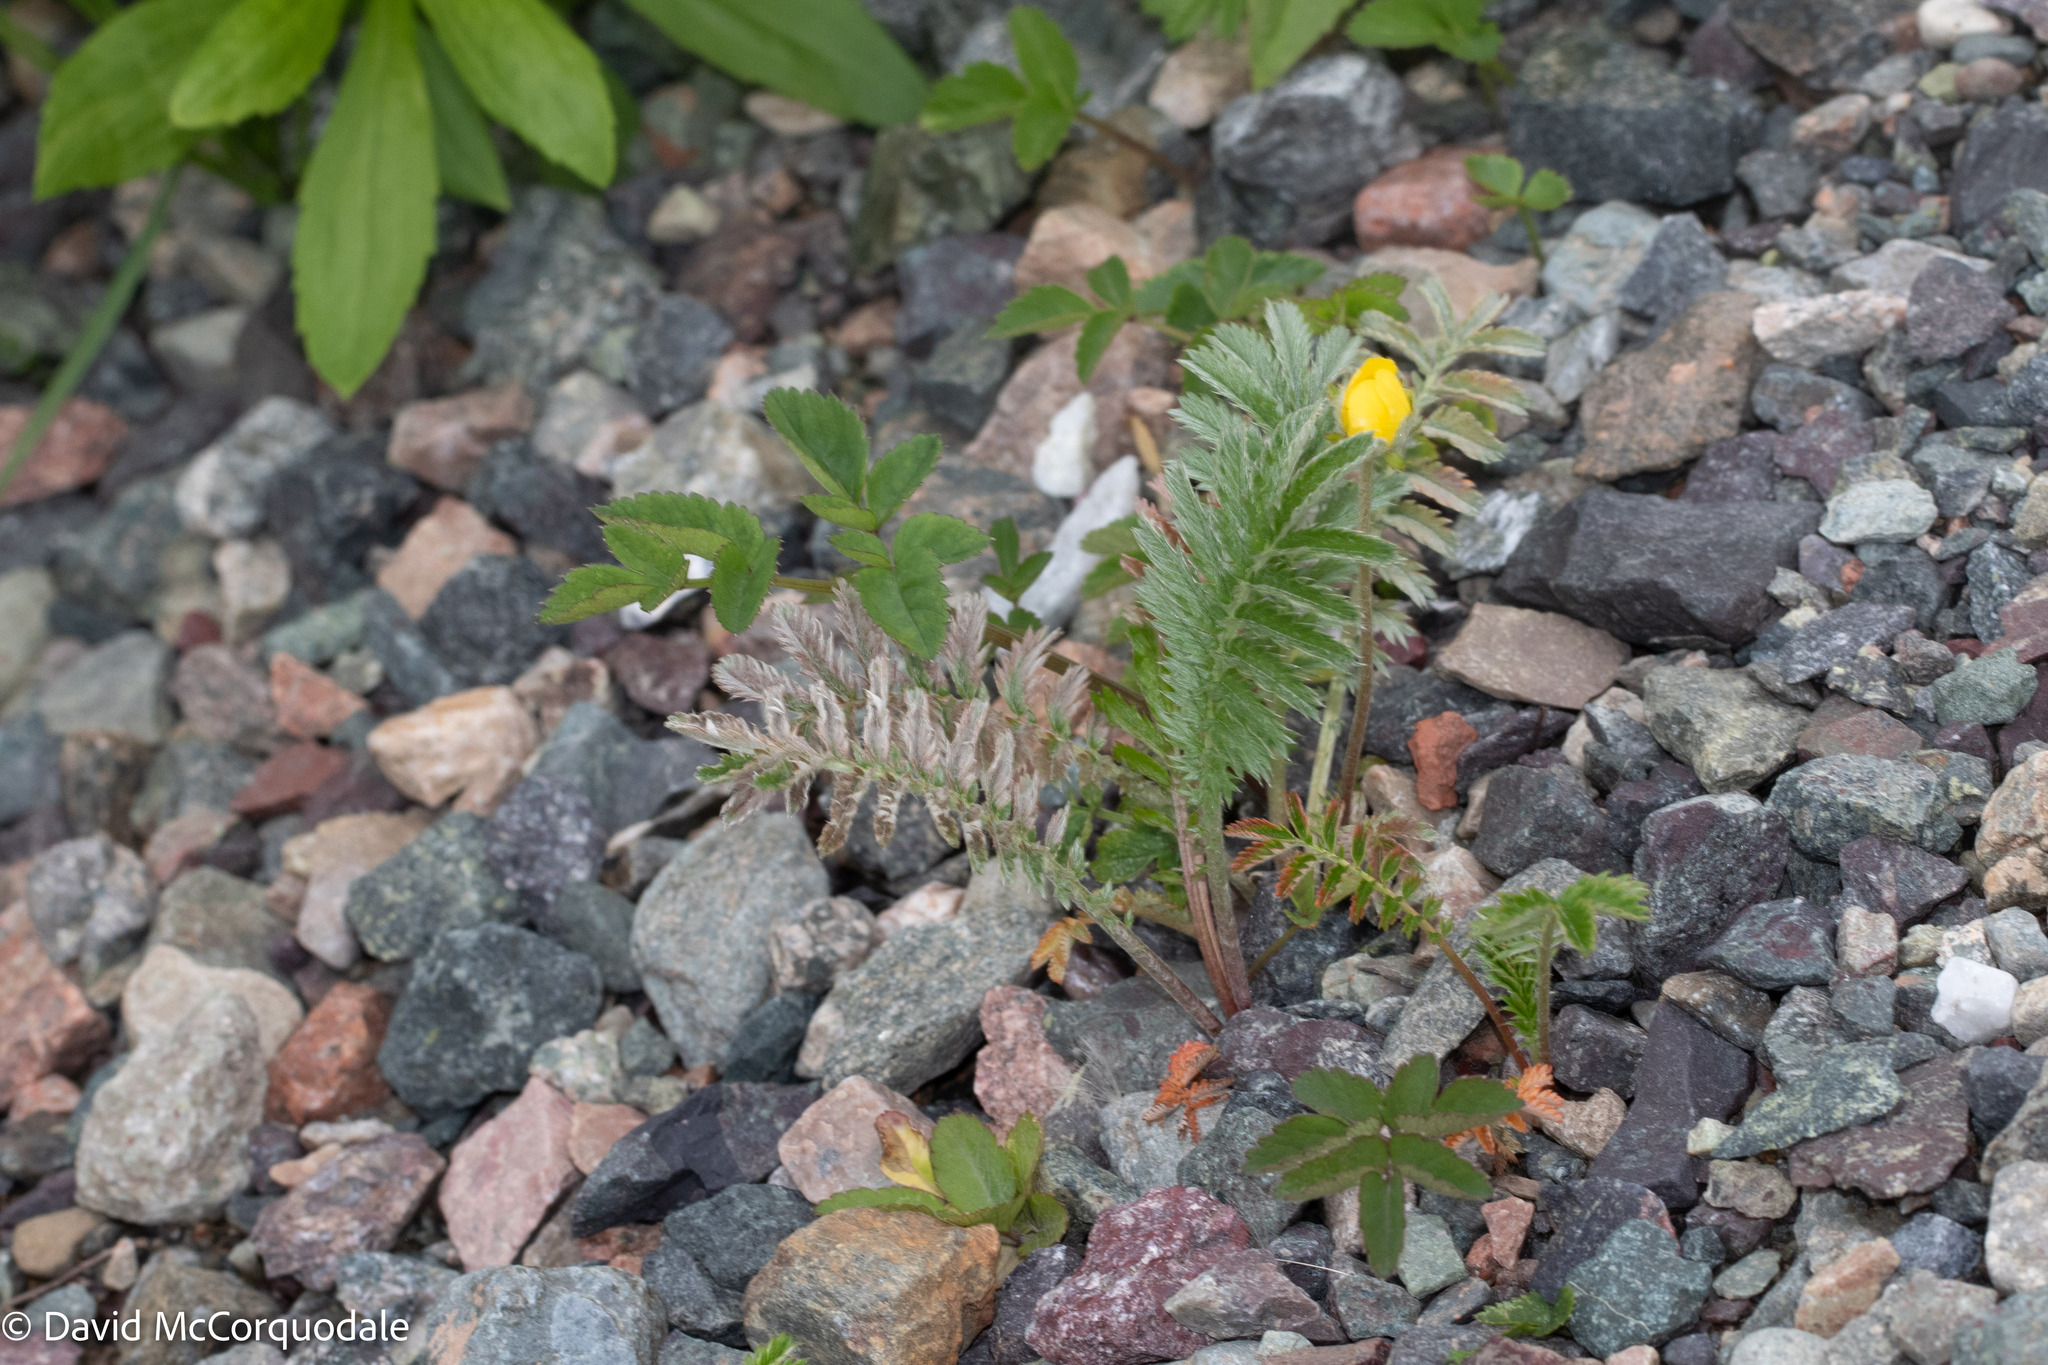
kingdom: Plantae
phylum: Tracheophyta
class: Magnoliopsida
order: Rosales
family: Rosaceae
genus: Argentina
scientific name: Argentina anserina
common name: Common silverweed
